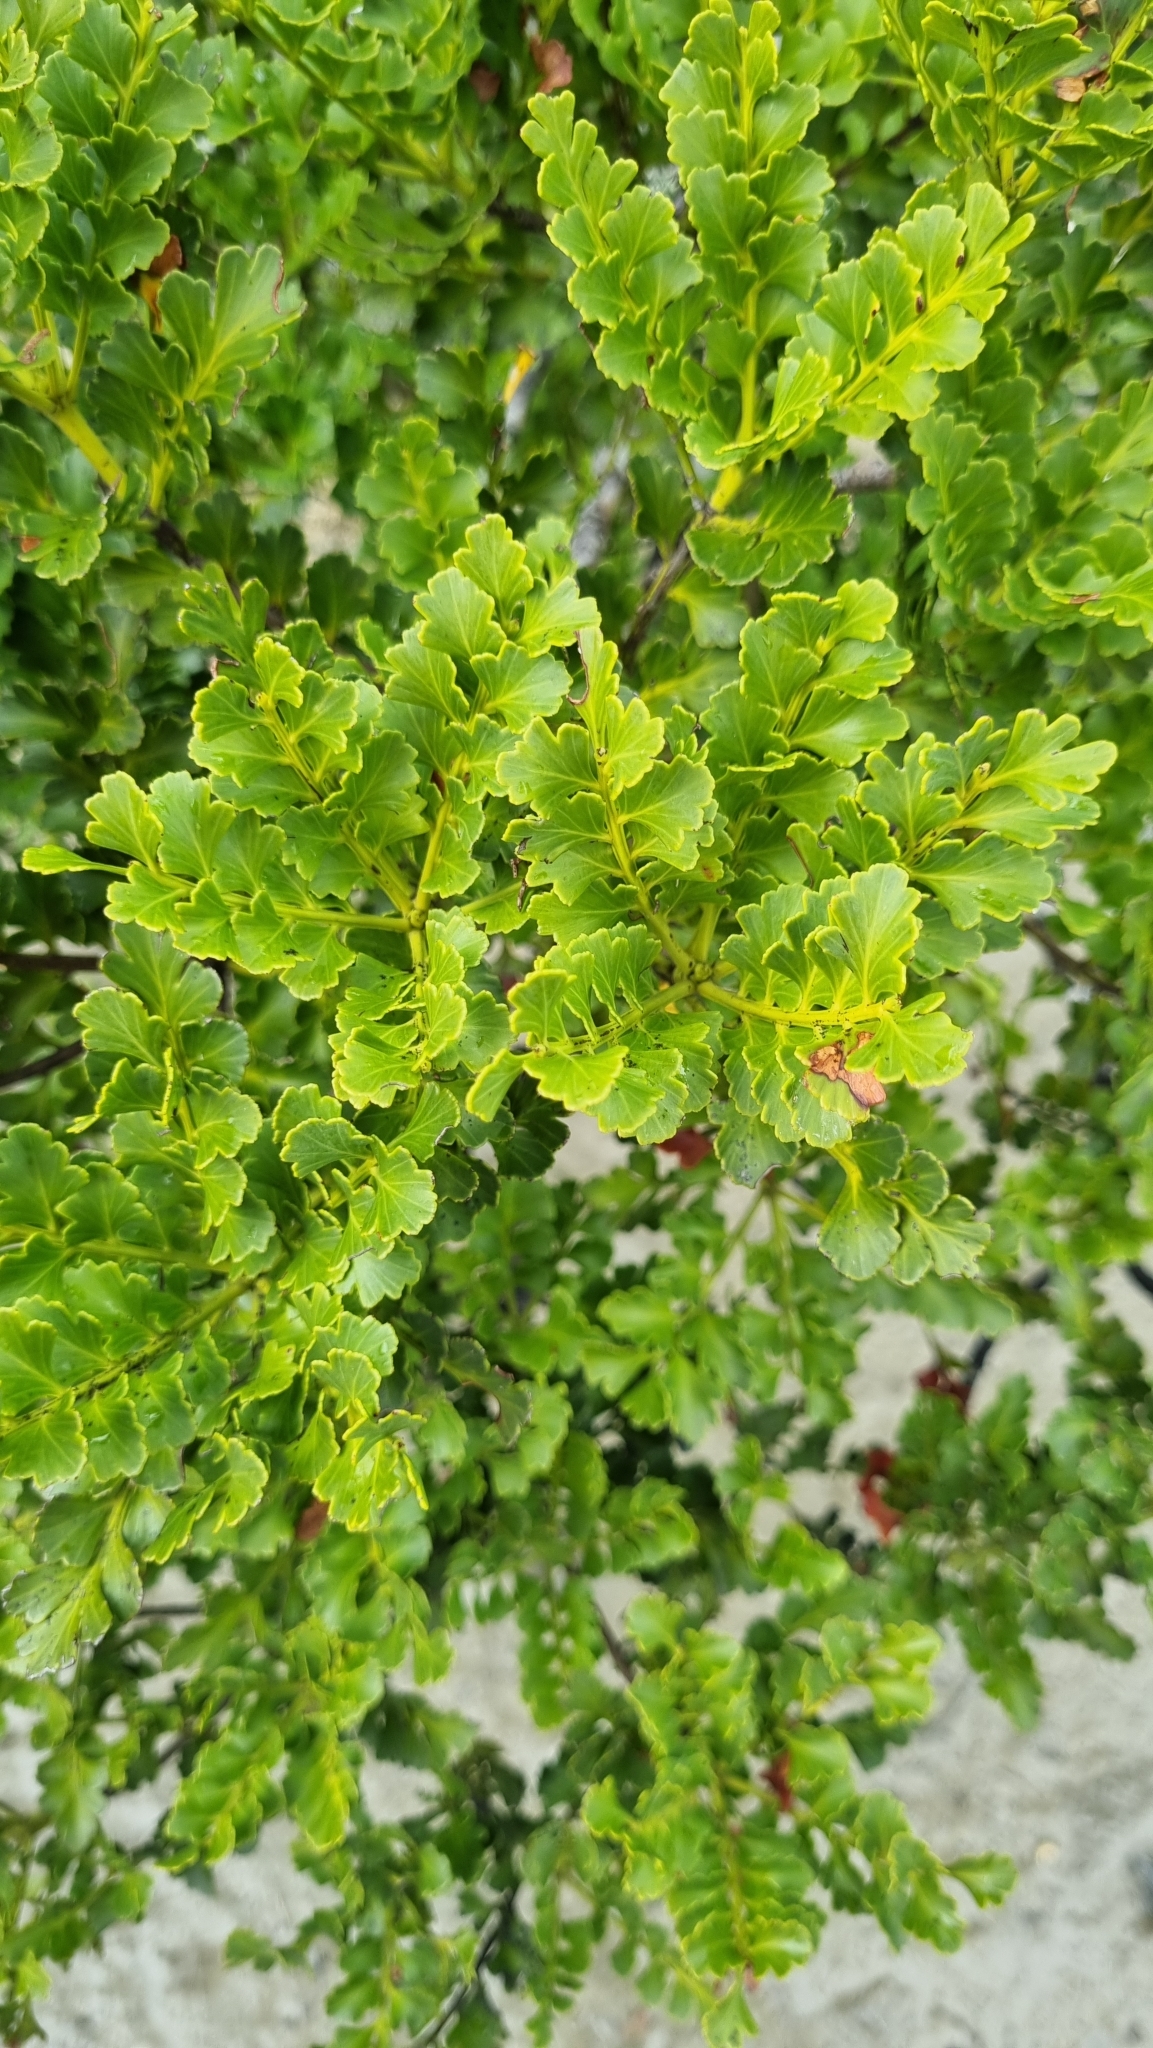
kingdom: Plantae
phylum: Tracheophyta
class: Pinopsida
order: Pinales
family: Phyllocladaceae
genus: Phyllocladus
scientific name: Phyllocladus trichomanoides
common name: Celery pine
